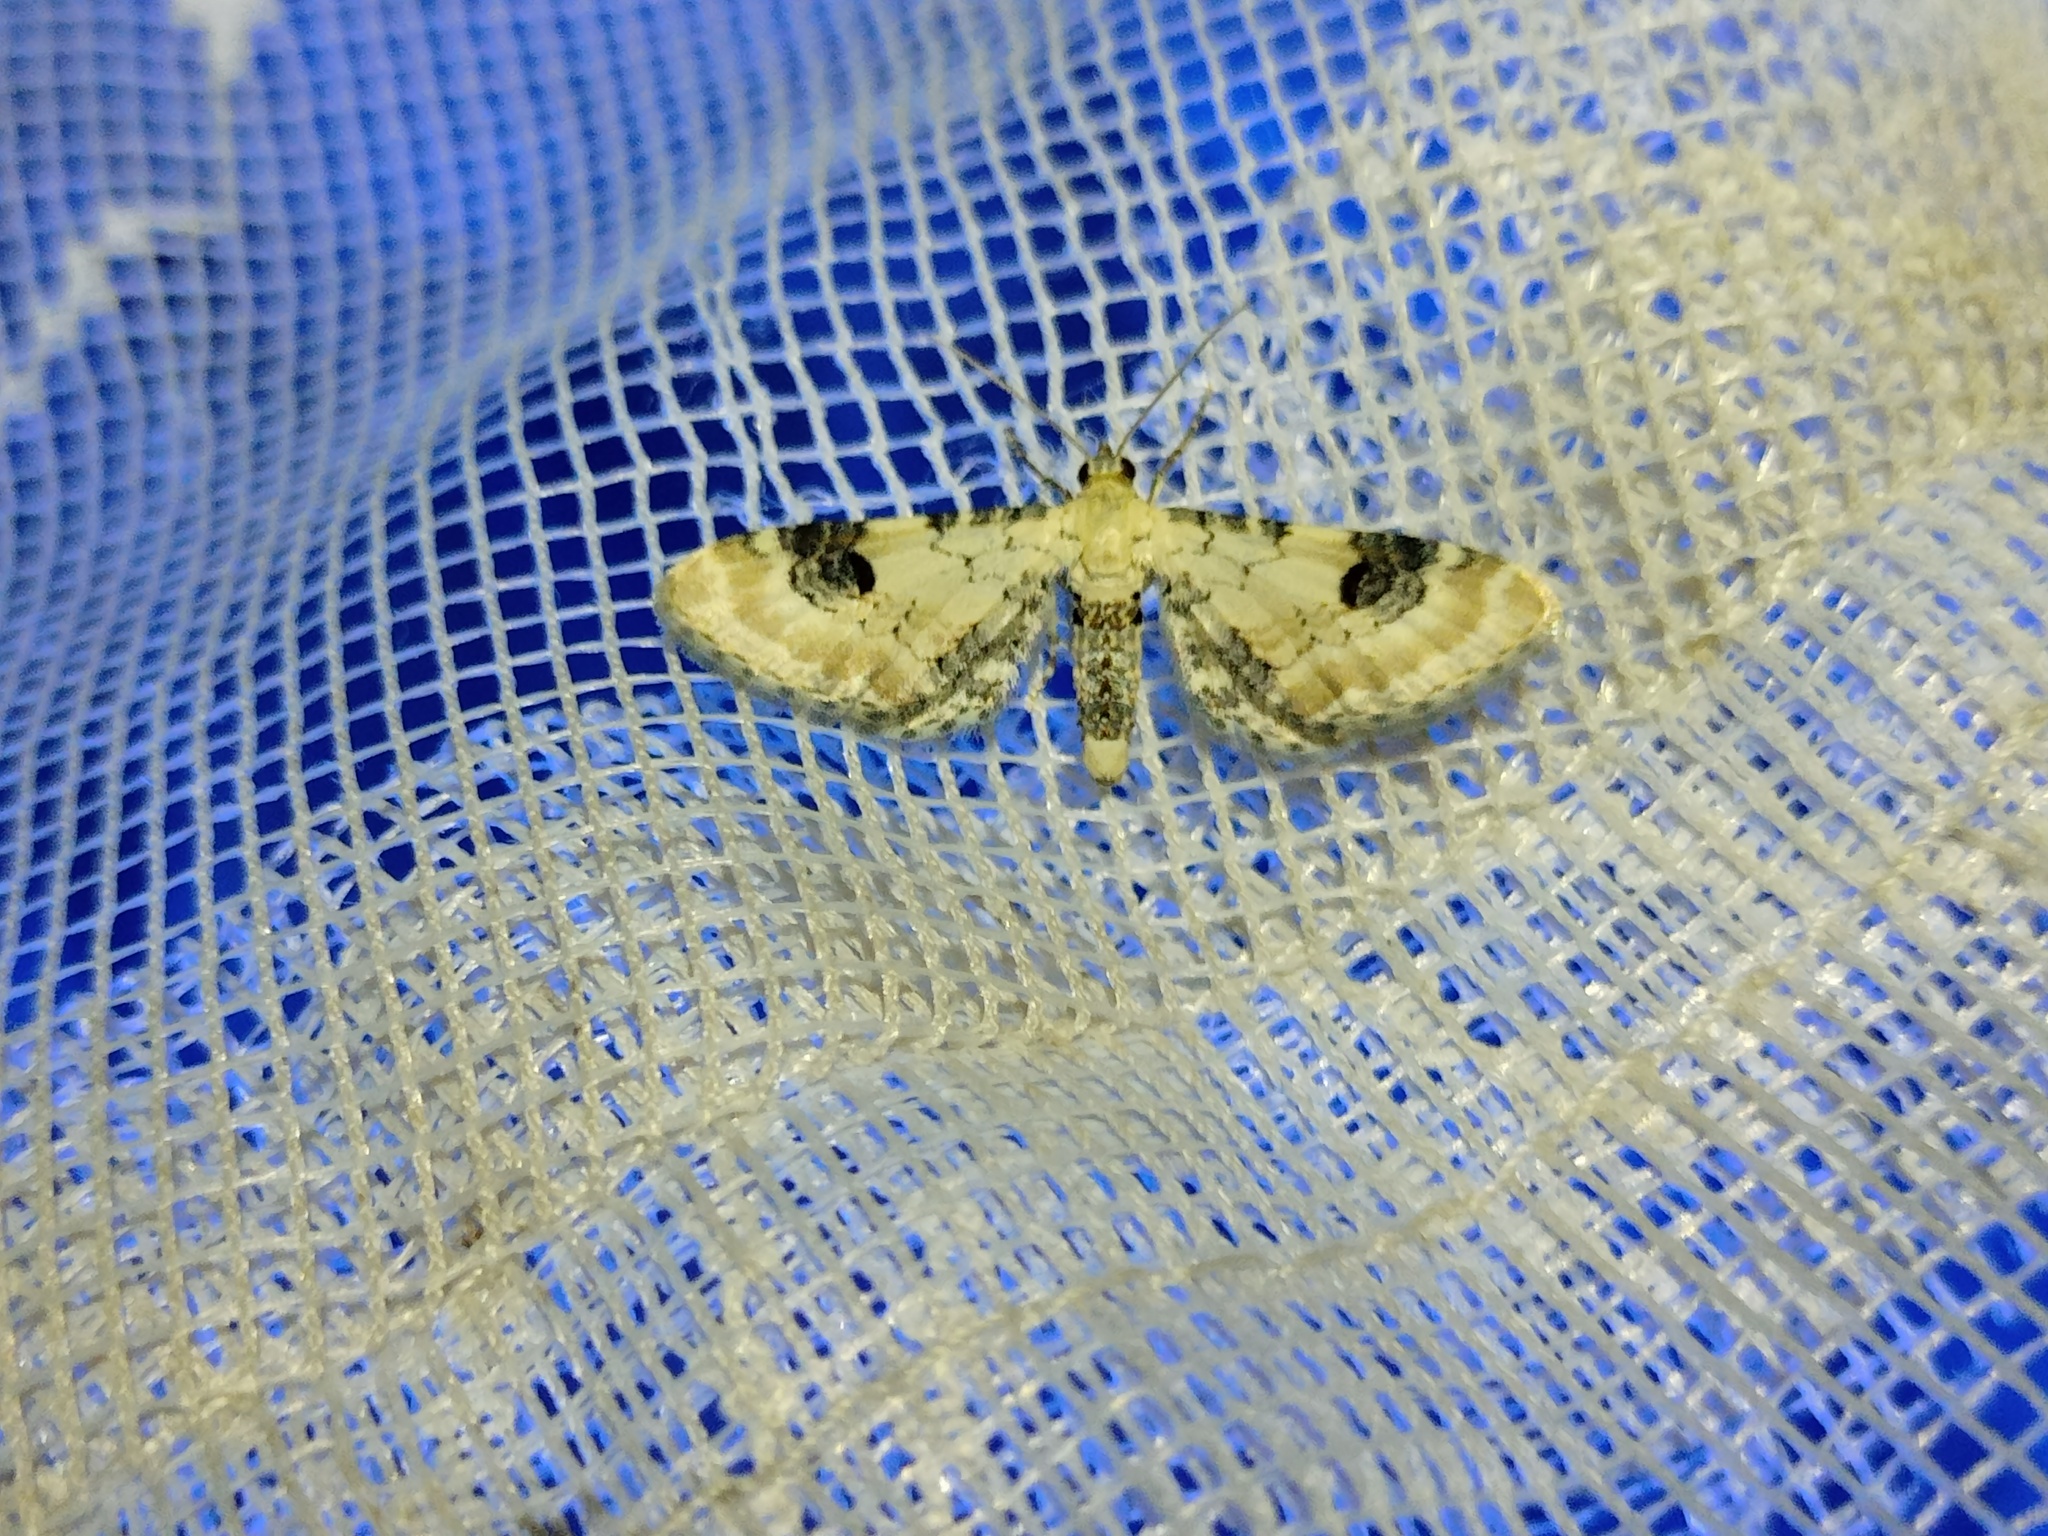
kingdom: Animalia
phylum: Arthropoda
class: Insecta
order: Lepidoptera
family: Geometridae
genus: Eupithecia
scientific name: Eupithecia centaureata
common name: Lime-speck pug
